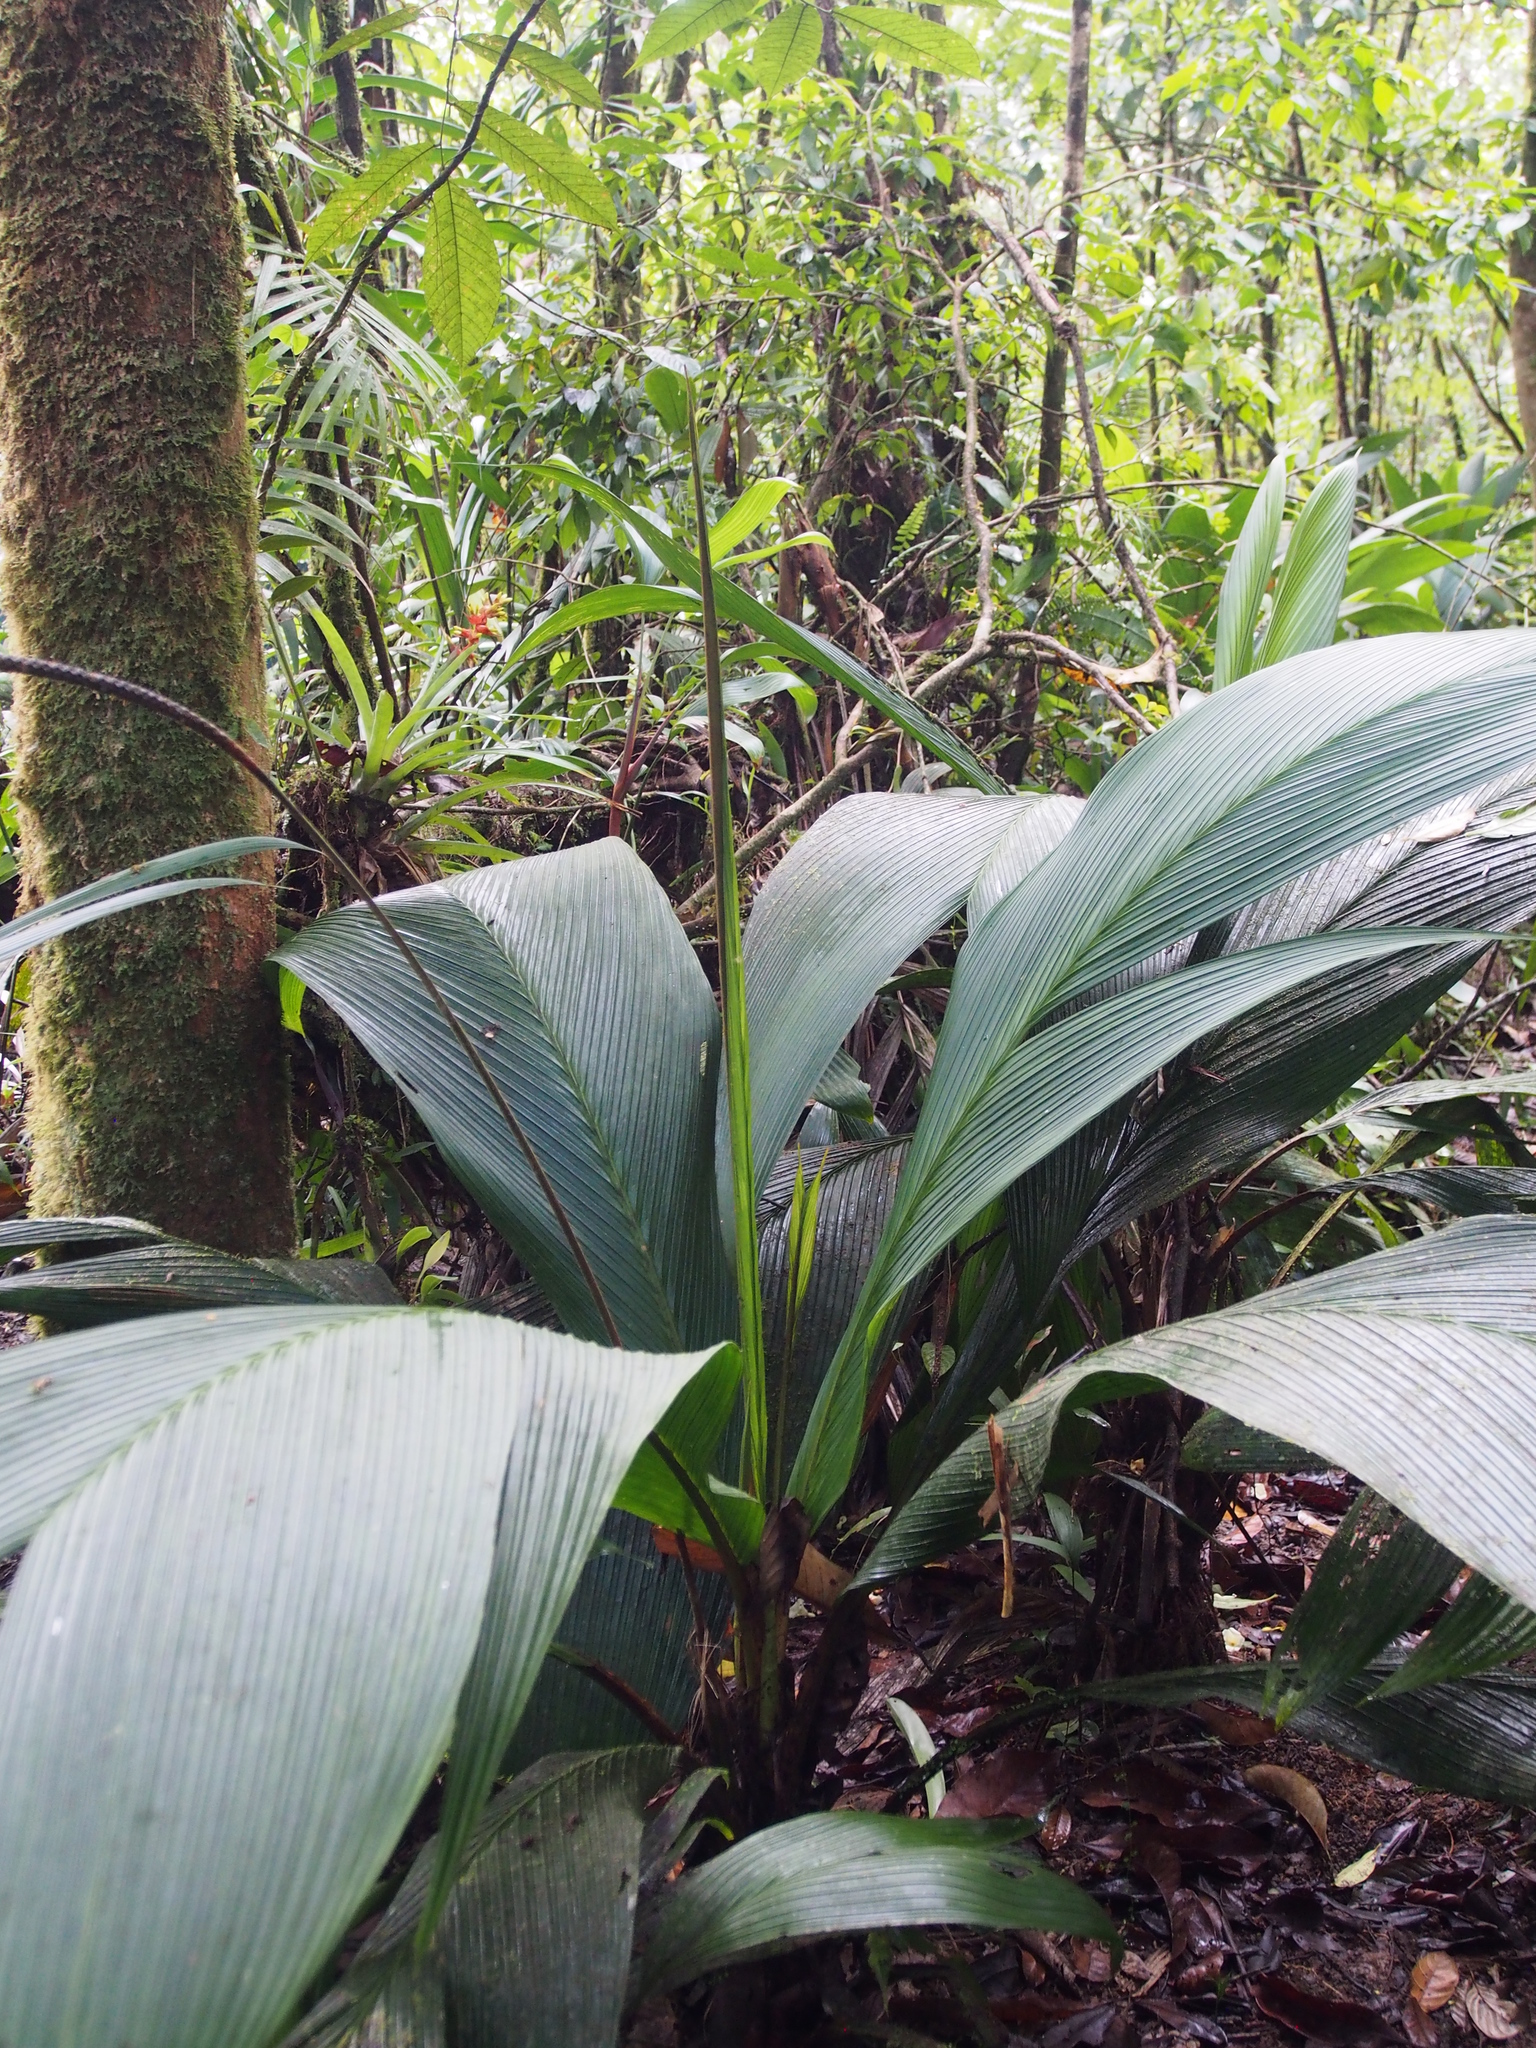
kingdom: Plantae
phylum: Tracheophyta
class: Liliopsida
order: Arecales
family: Arecaceae
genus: Calyptrogyne
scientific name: Calyptrogyne ghiesbreghtiana
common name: Coligallo
